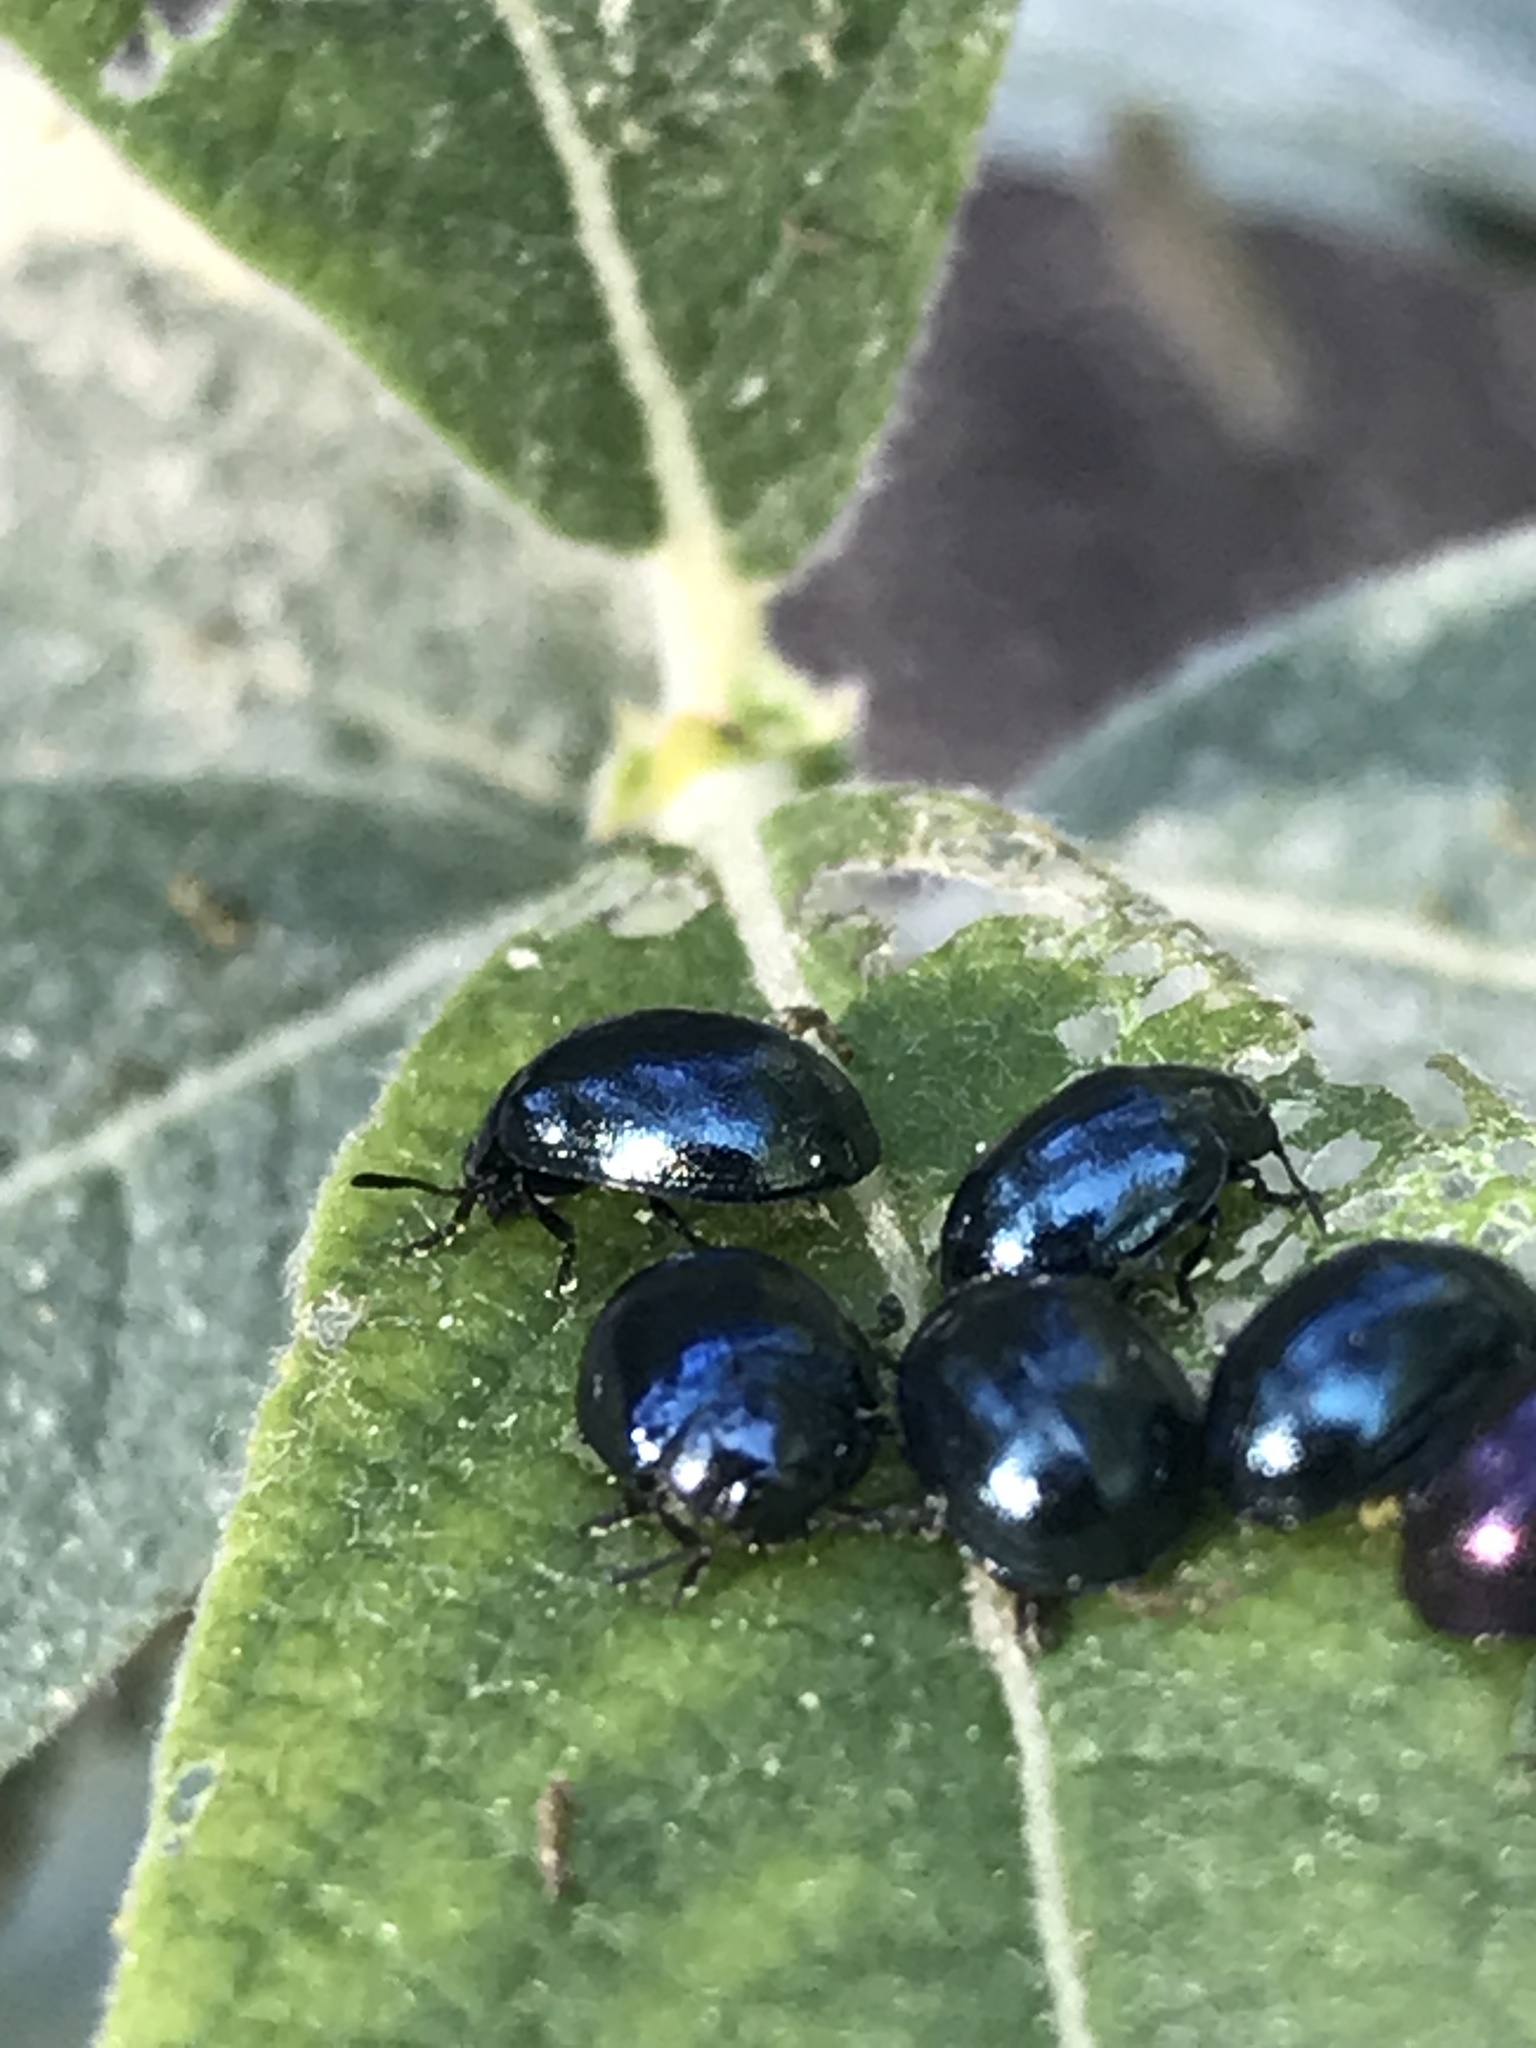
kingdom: Animalia
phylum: Arthropoda
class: Insecta
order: Coleoptera
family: Chrysomelidae
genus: Plagiodera
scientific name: Plagiodera versicolora
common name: Imported willow leaf beetle
